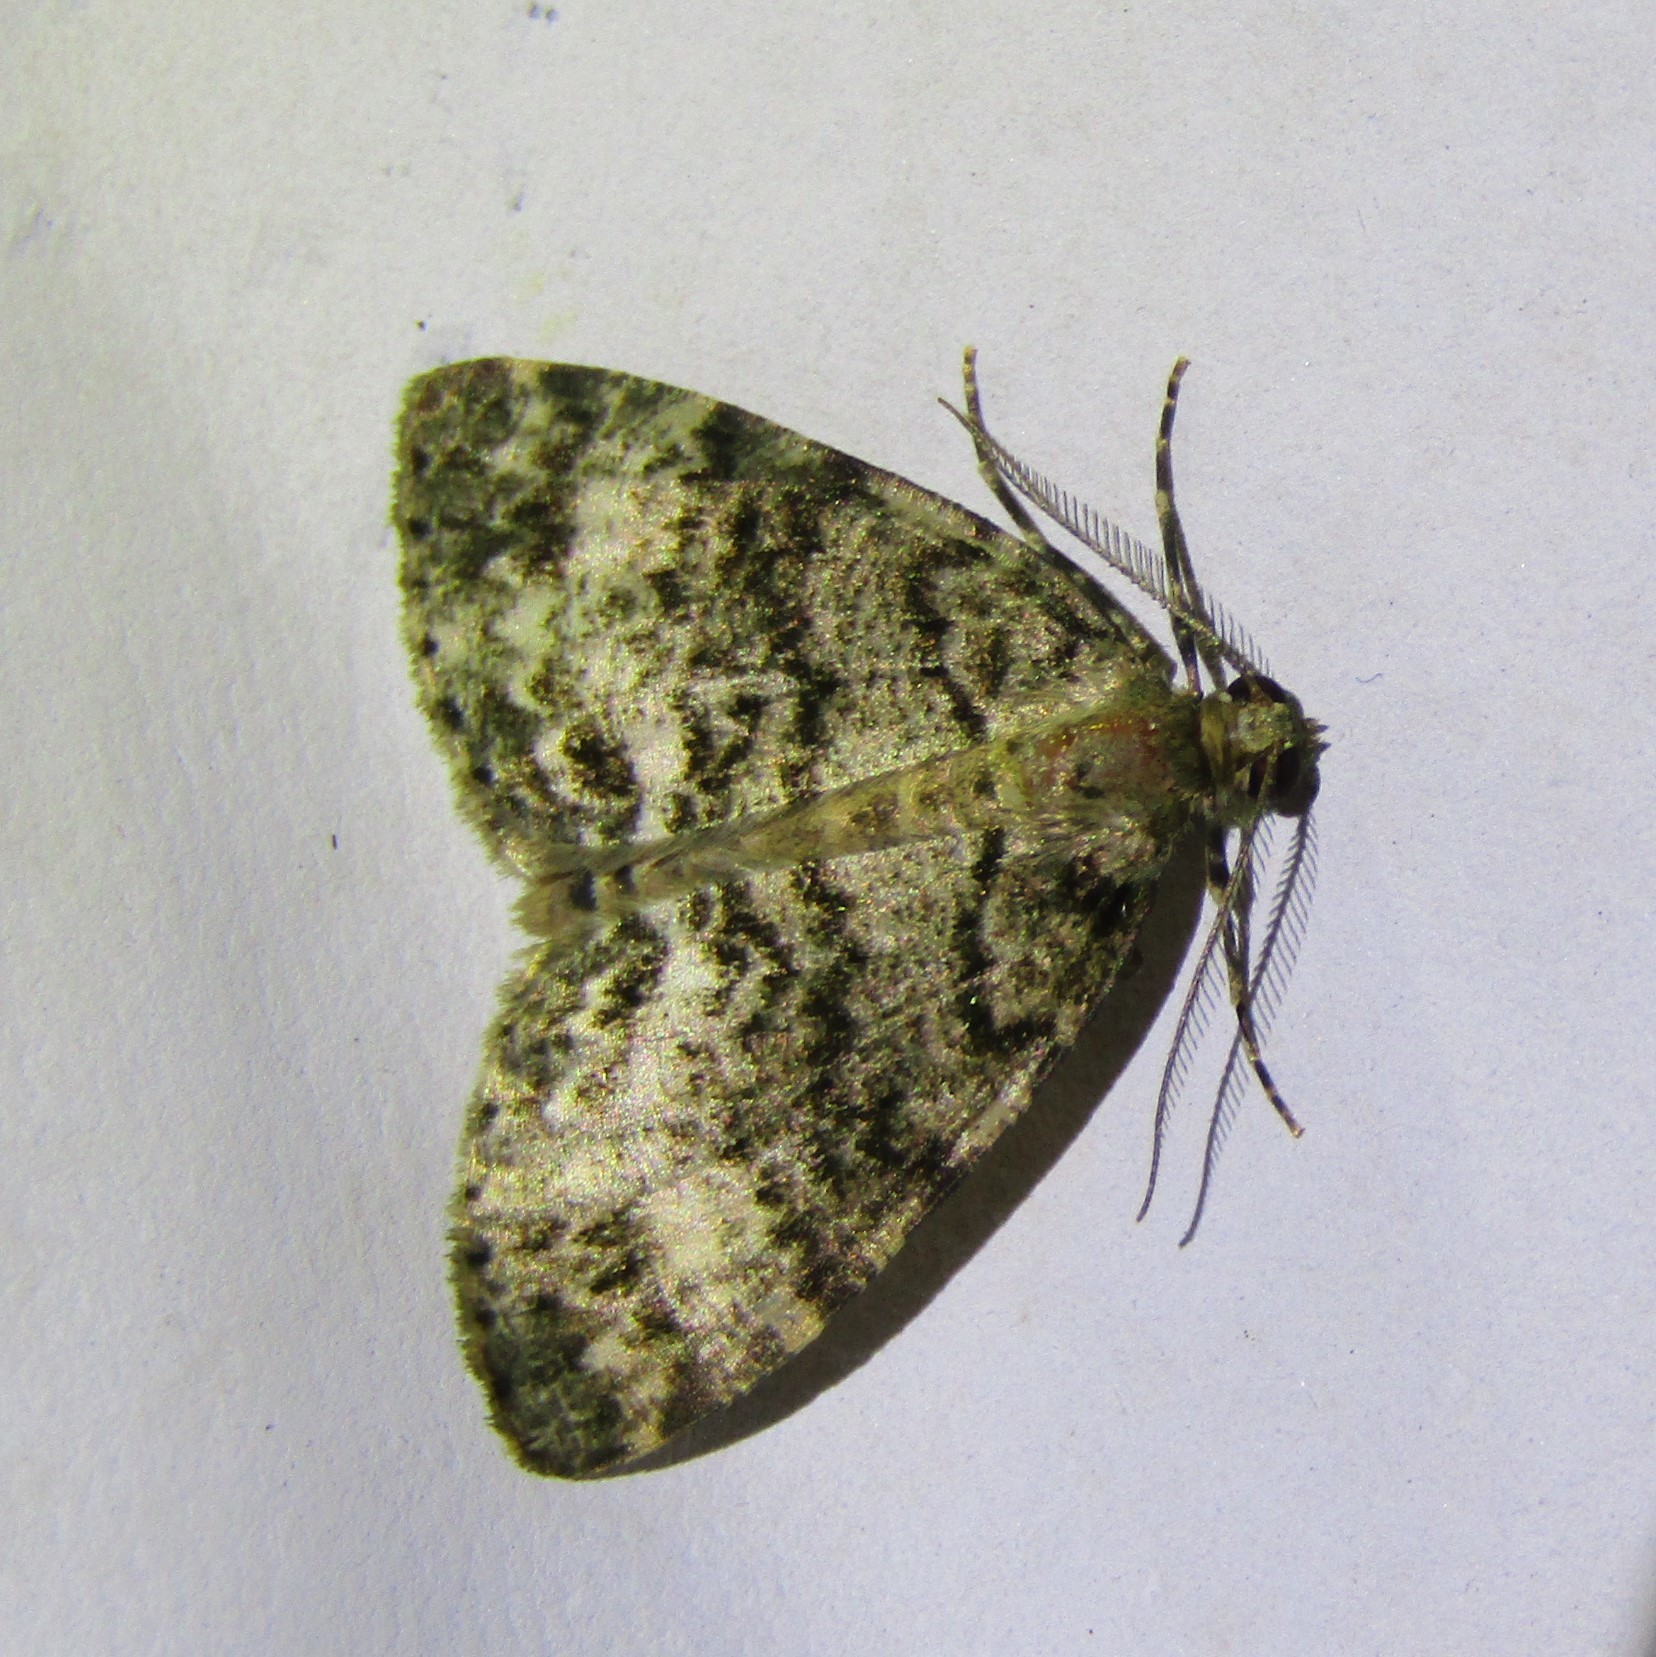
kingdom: Animalia
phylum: Arthropoda
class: Insecta
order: Lepidoptera
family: Geometridae
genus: Pseudocoremia
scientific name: Pseudocoremia indistincta
